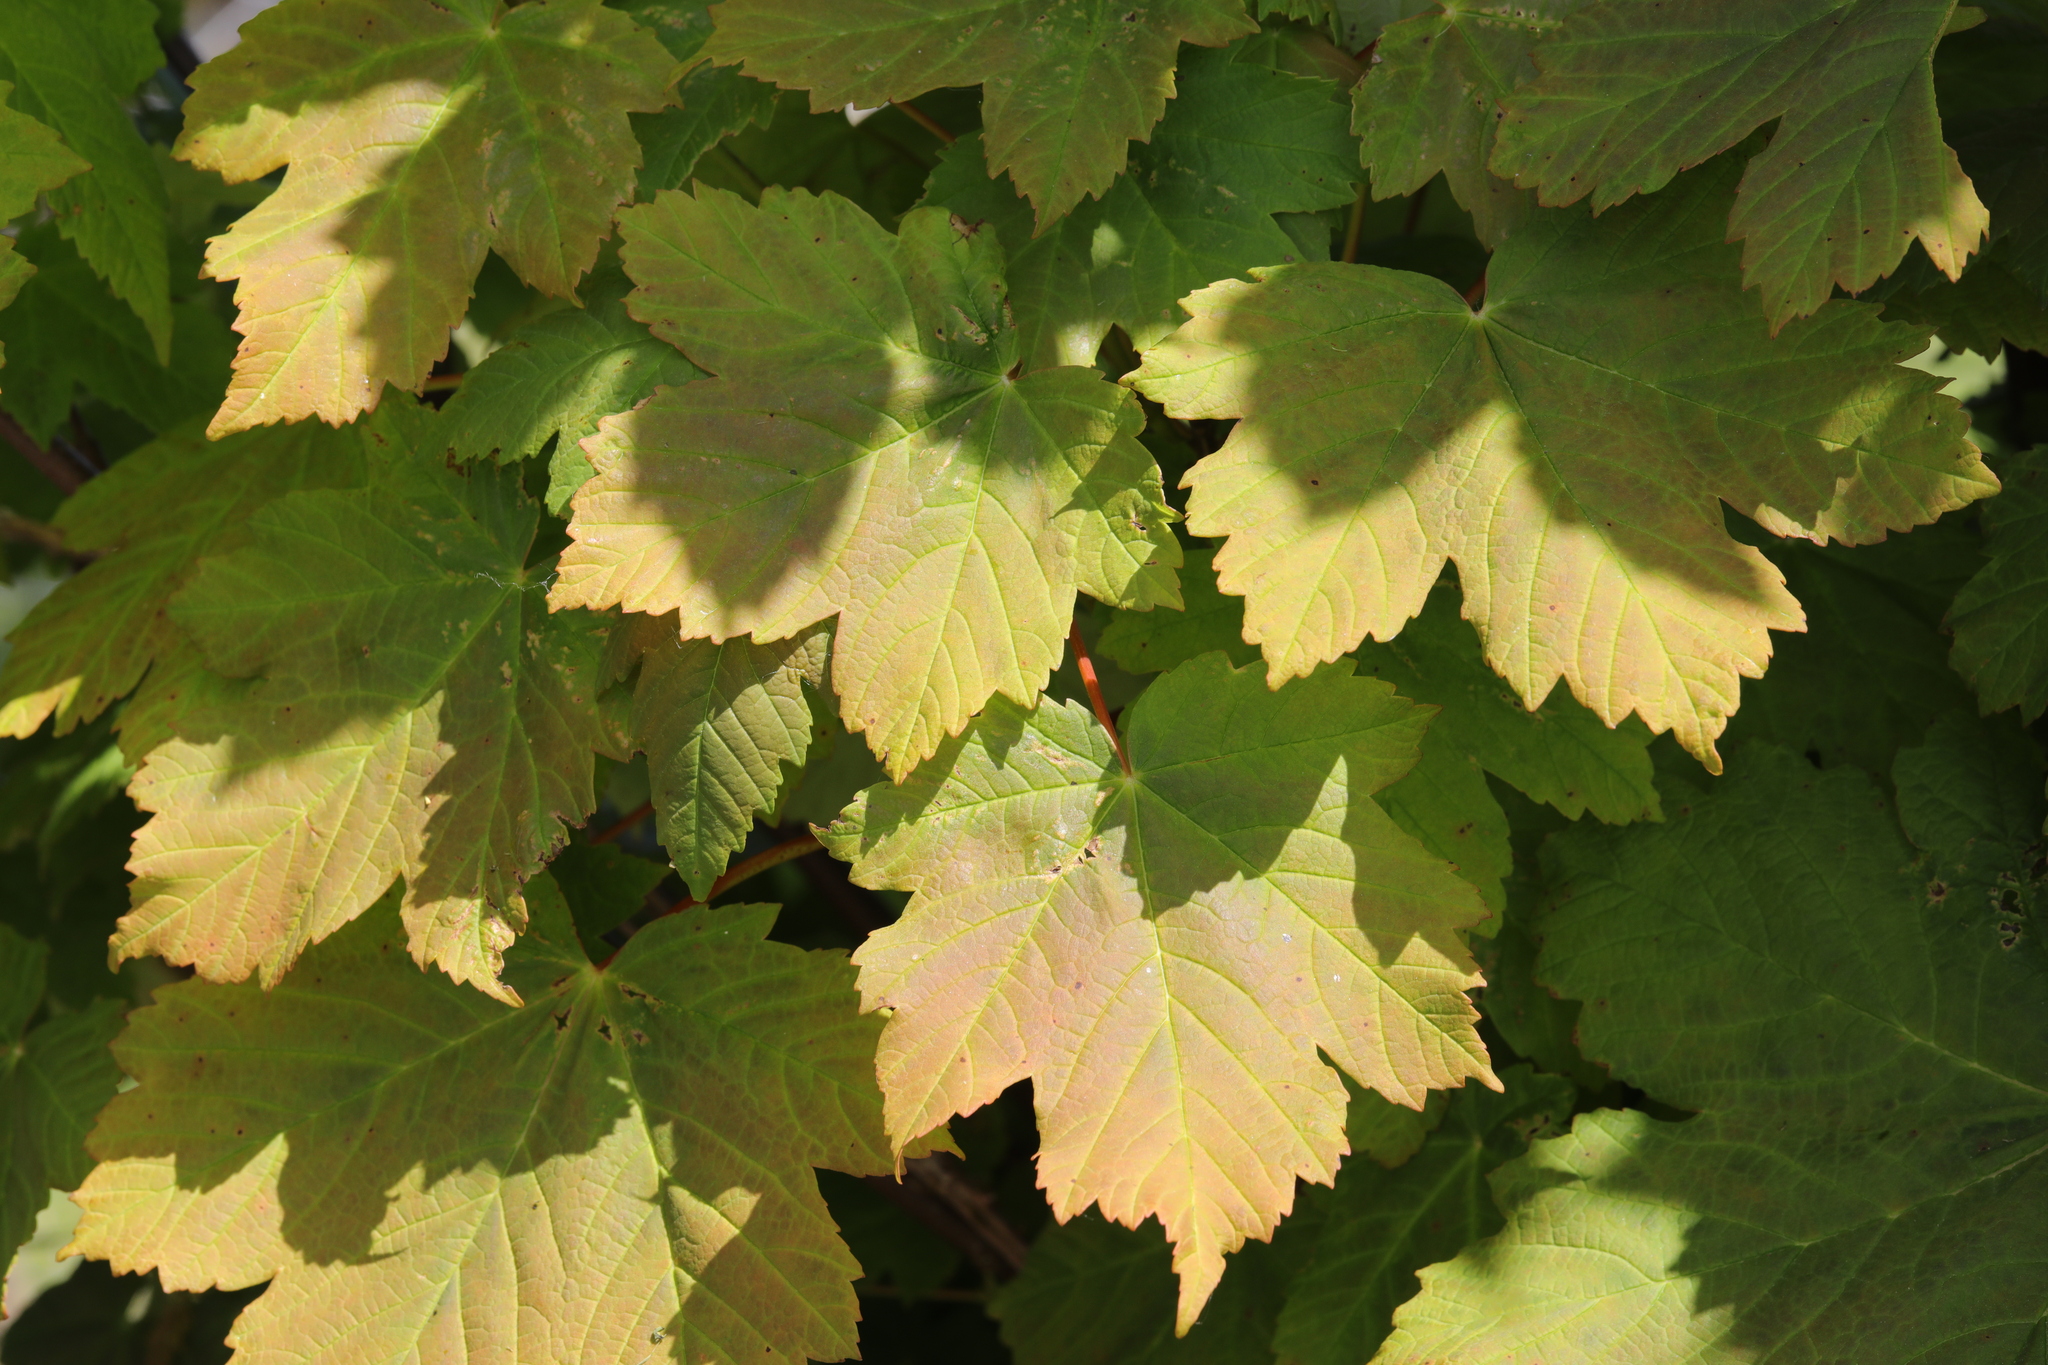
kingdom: Plantae
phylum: Tracheophyta
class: Magnoliopsida
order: Sapindales
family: Sapindaceae
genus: Acer
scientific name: Acer pseudoplatanus
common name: Sycamore
